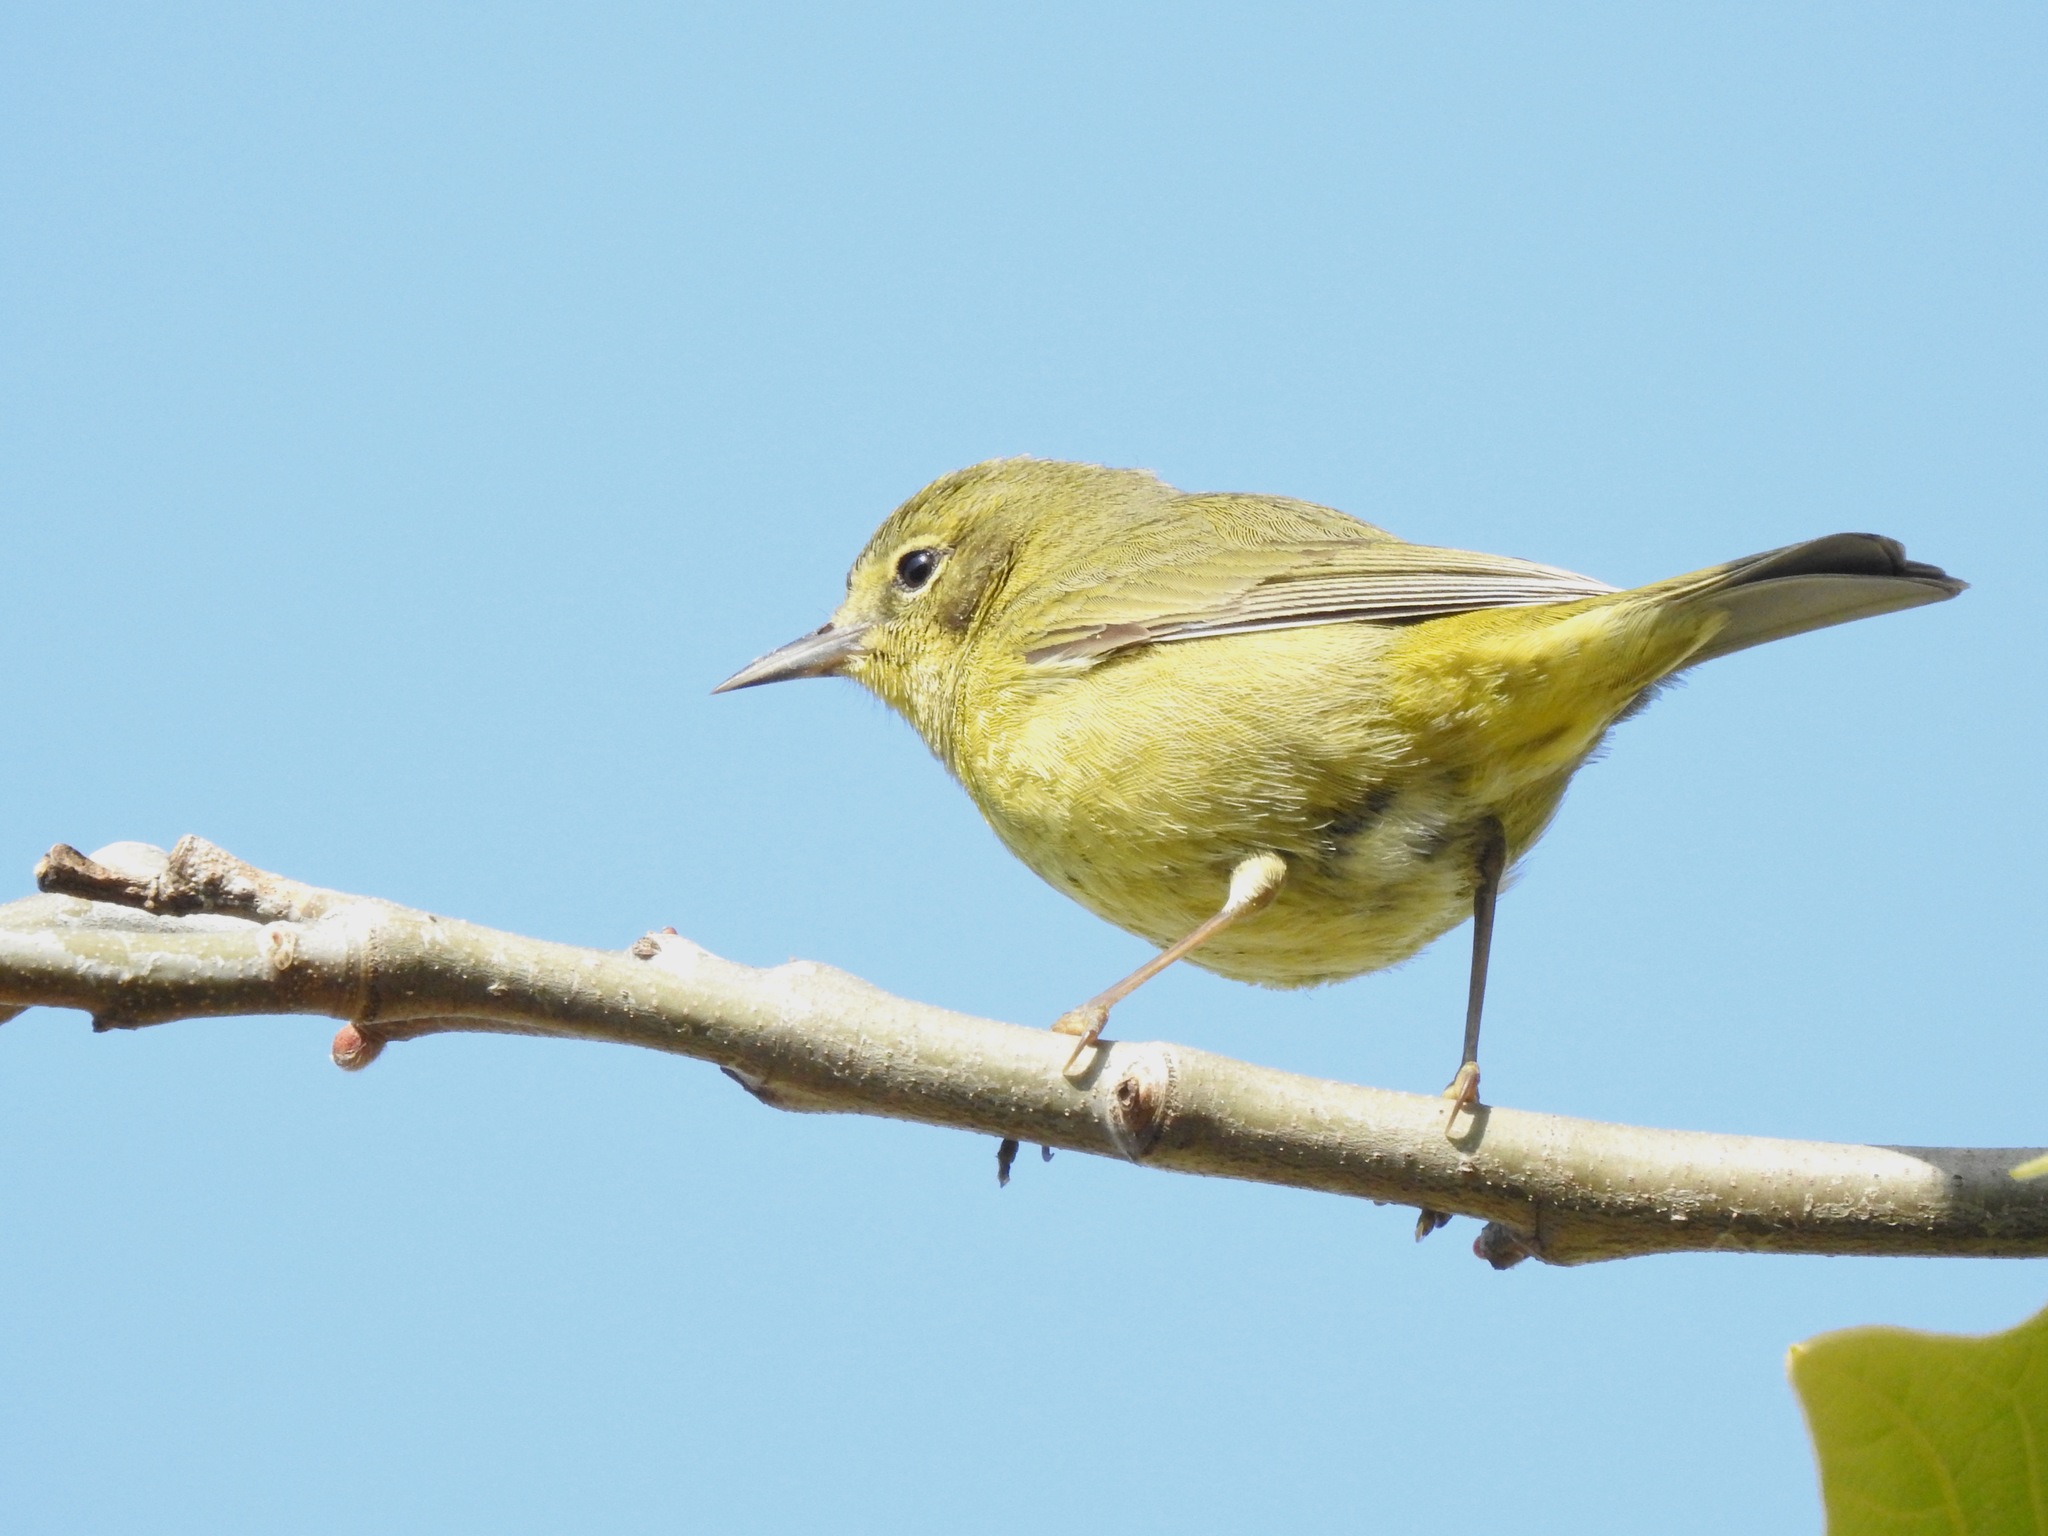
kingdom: Animalia
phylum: Chordata
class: Aves
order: Passeriformes
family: Parulidae
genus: Leiothlypis
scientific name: Leiothlypis celata
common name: Orange-crowned warbler
